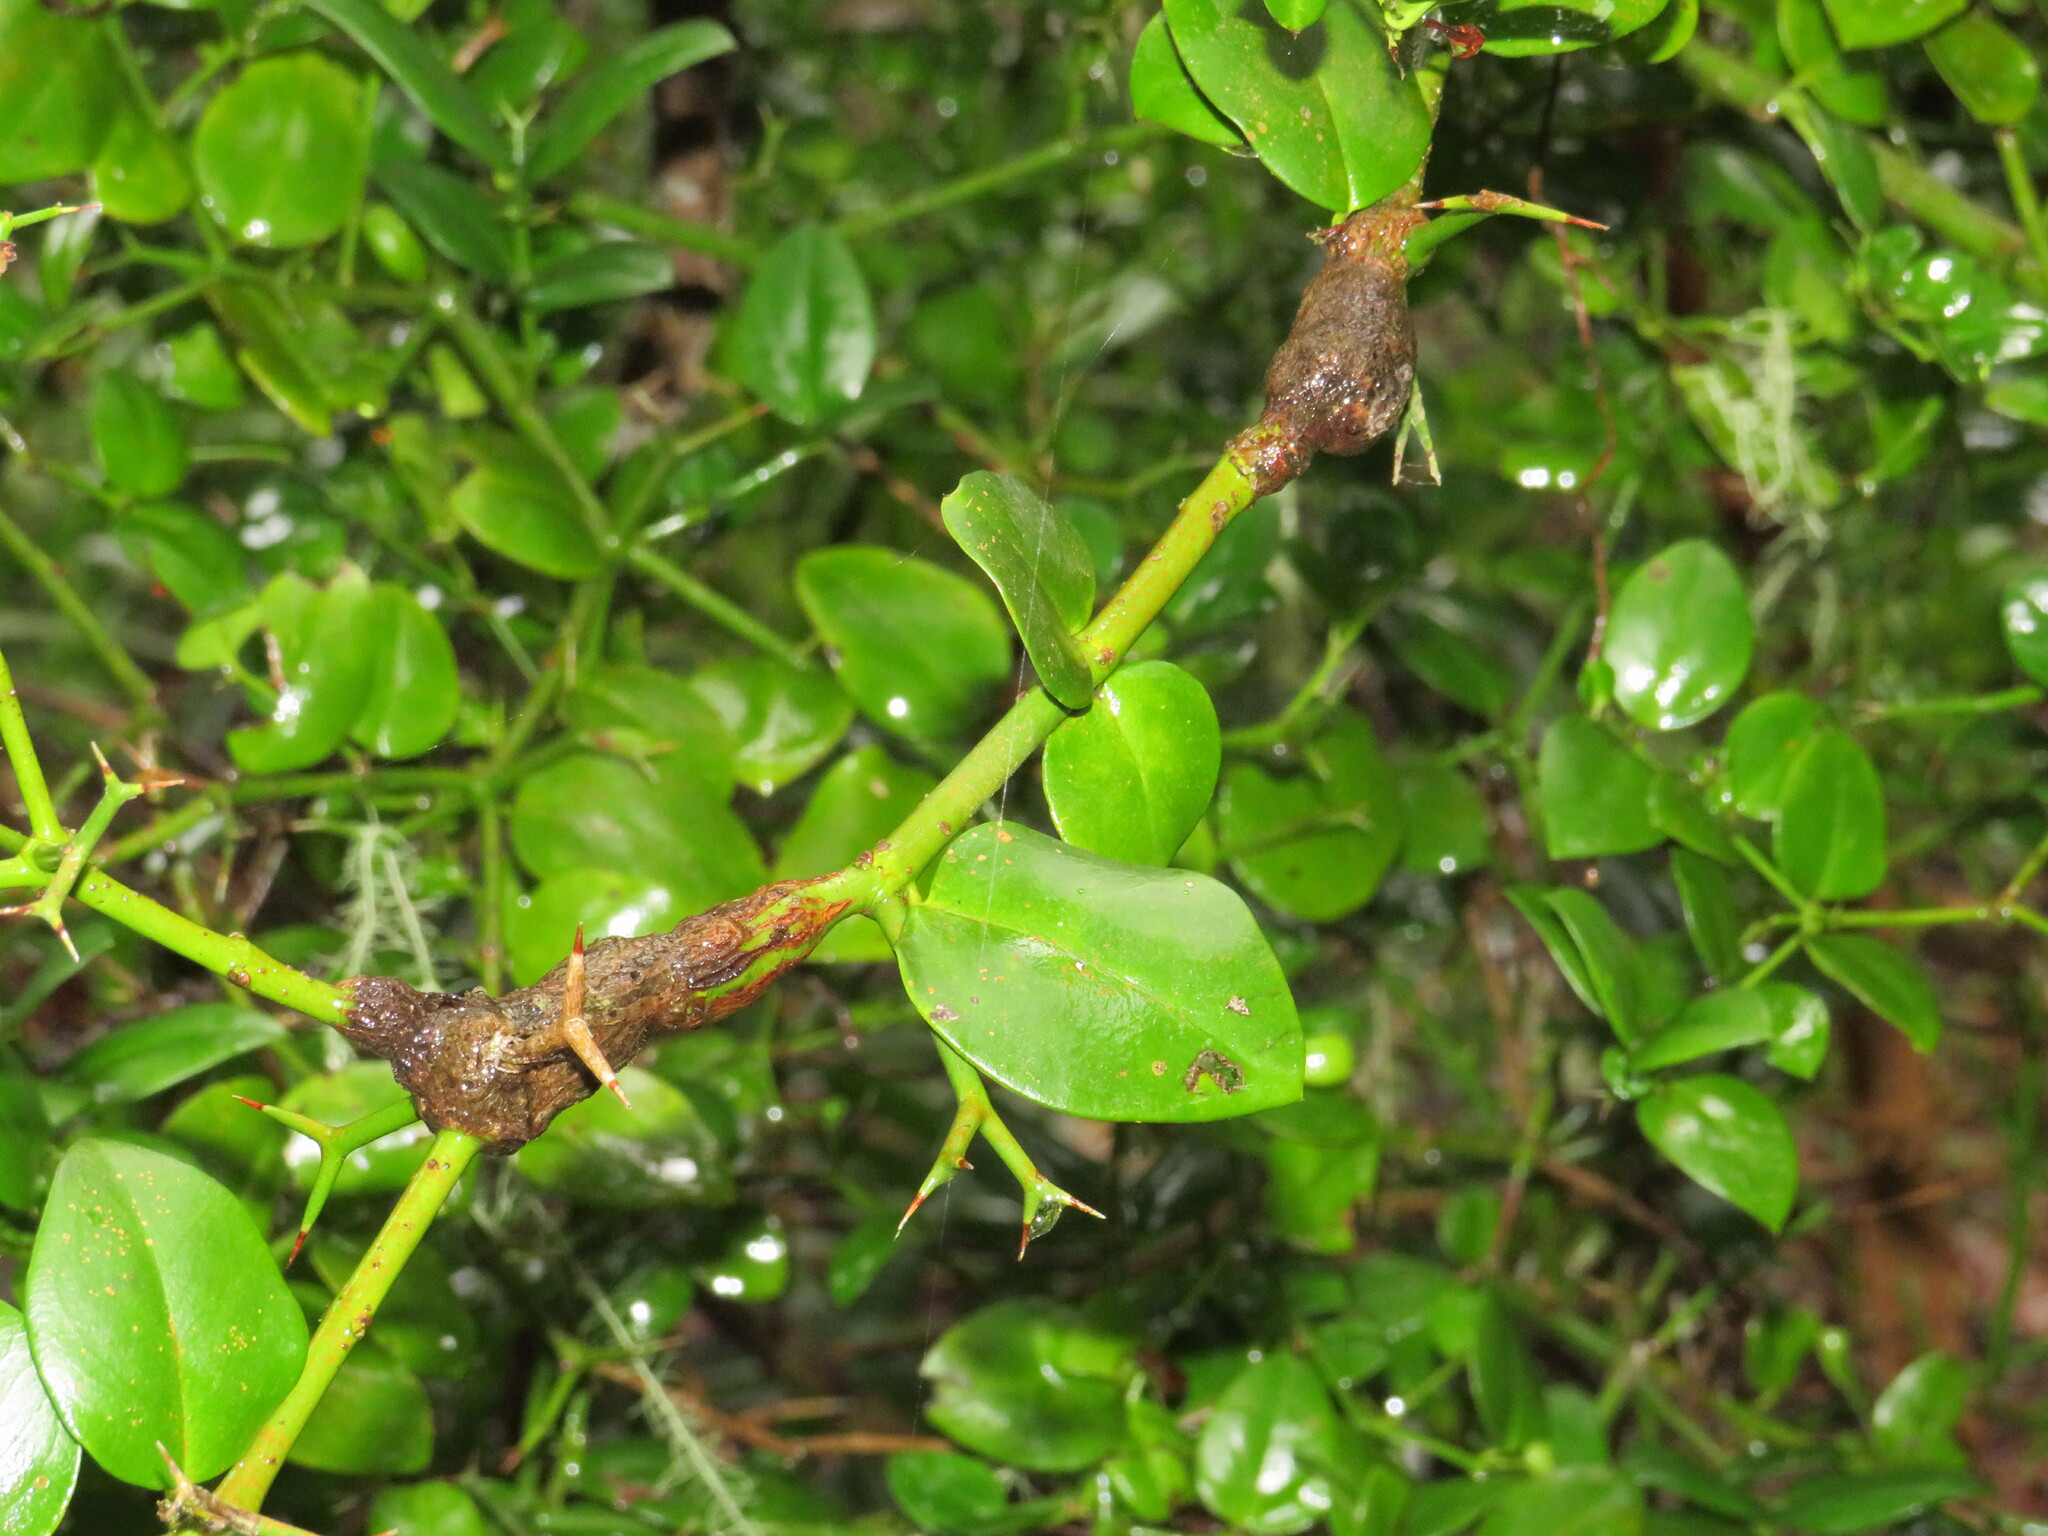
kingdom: Plantae
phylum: Tracheophyta
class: Magnoliopsida
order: Gentianales
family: Apocynaceae
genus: Carissa
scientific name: Carissa bispinosa
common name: Forest num-num
